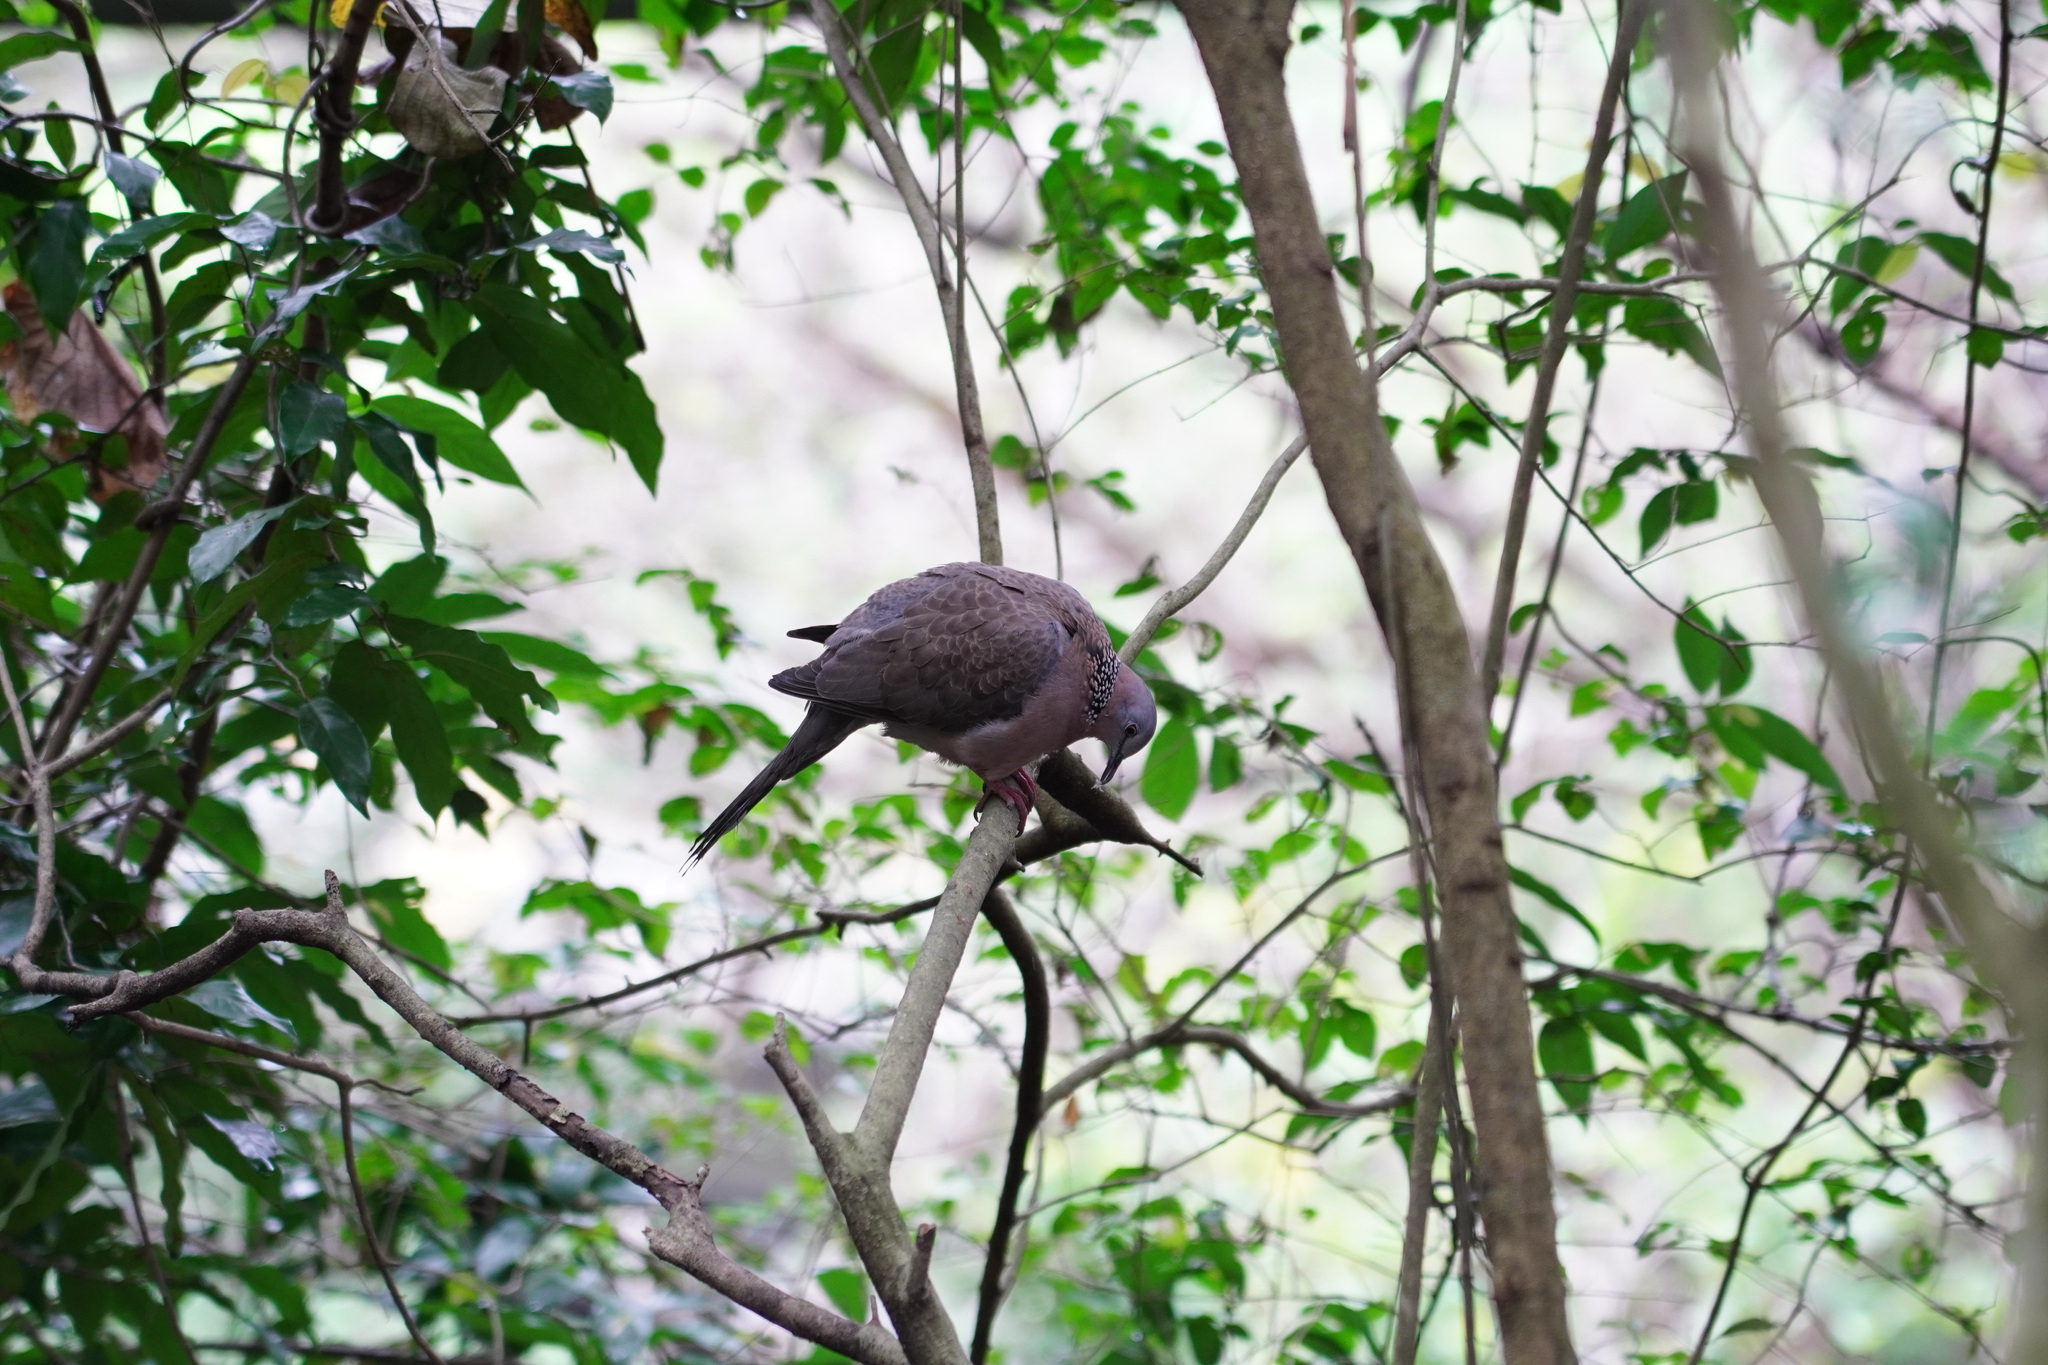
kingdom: Animalia
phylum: Chordata
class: Aves
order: Columbiformes
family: Columbidae
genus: Spilopelia
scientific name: Spilopelia chinensis
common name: Spotted dove
